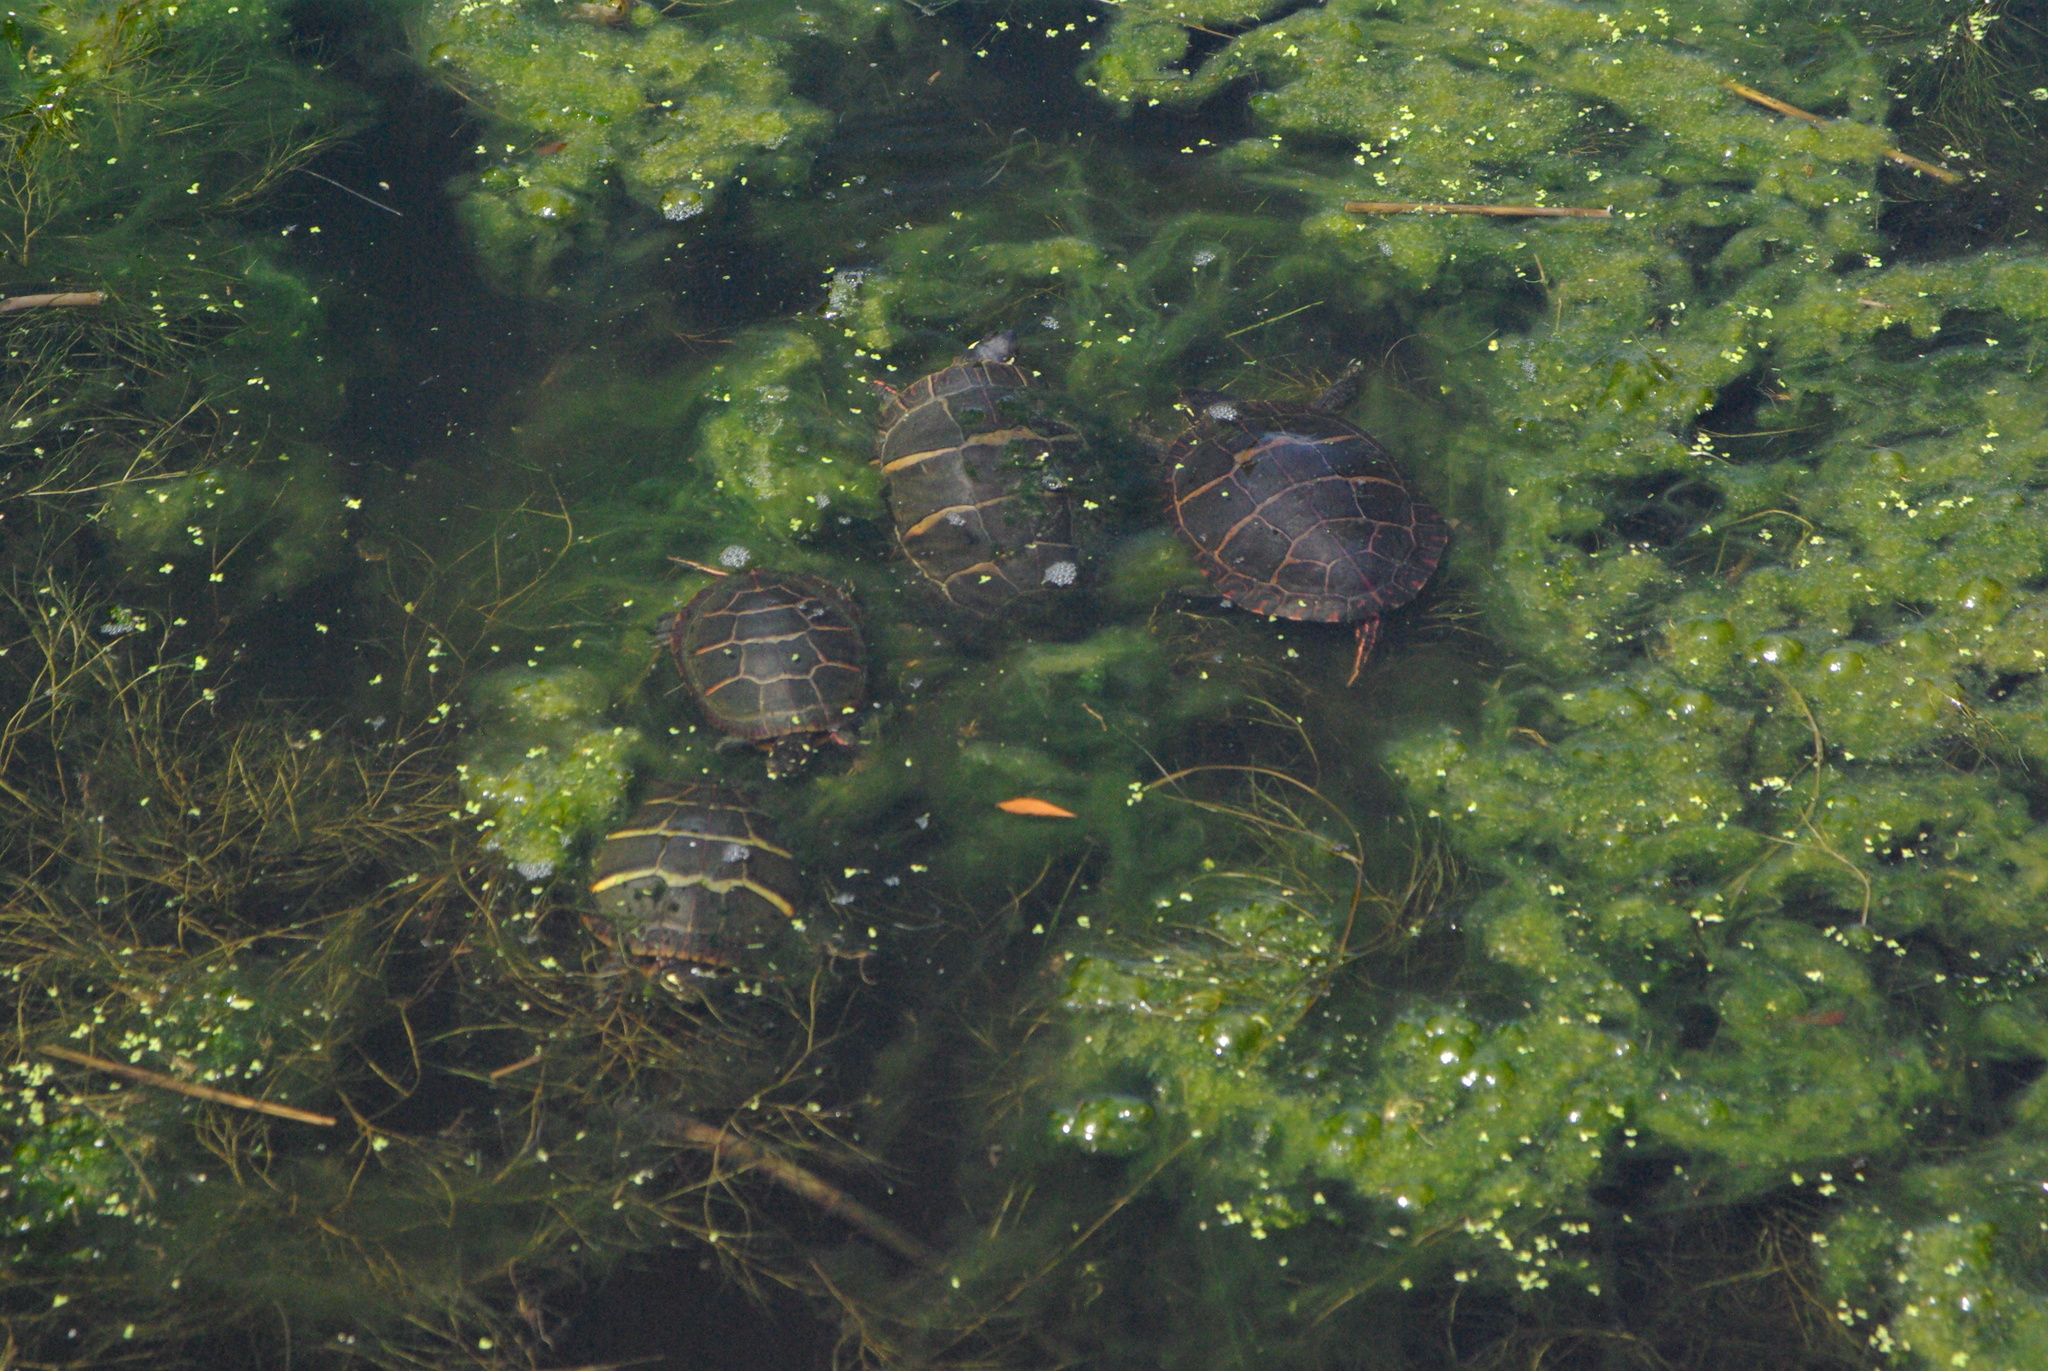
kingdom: Animalia
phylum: Chordata
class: Testudines
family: Emydidae
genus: Chrysemys
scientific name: Chrysemys picta
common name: Painted turtle
